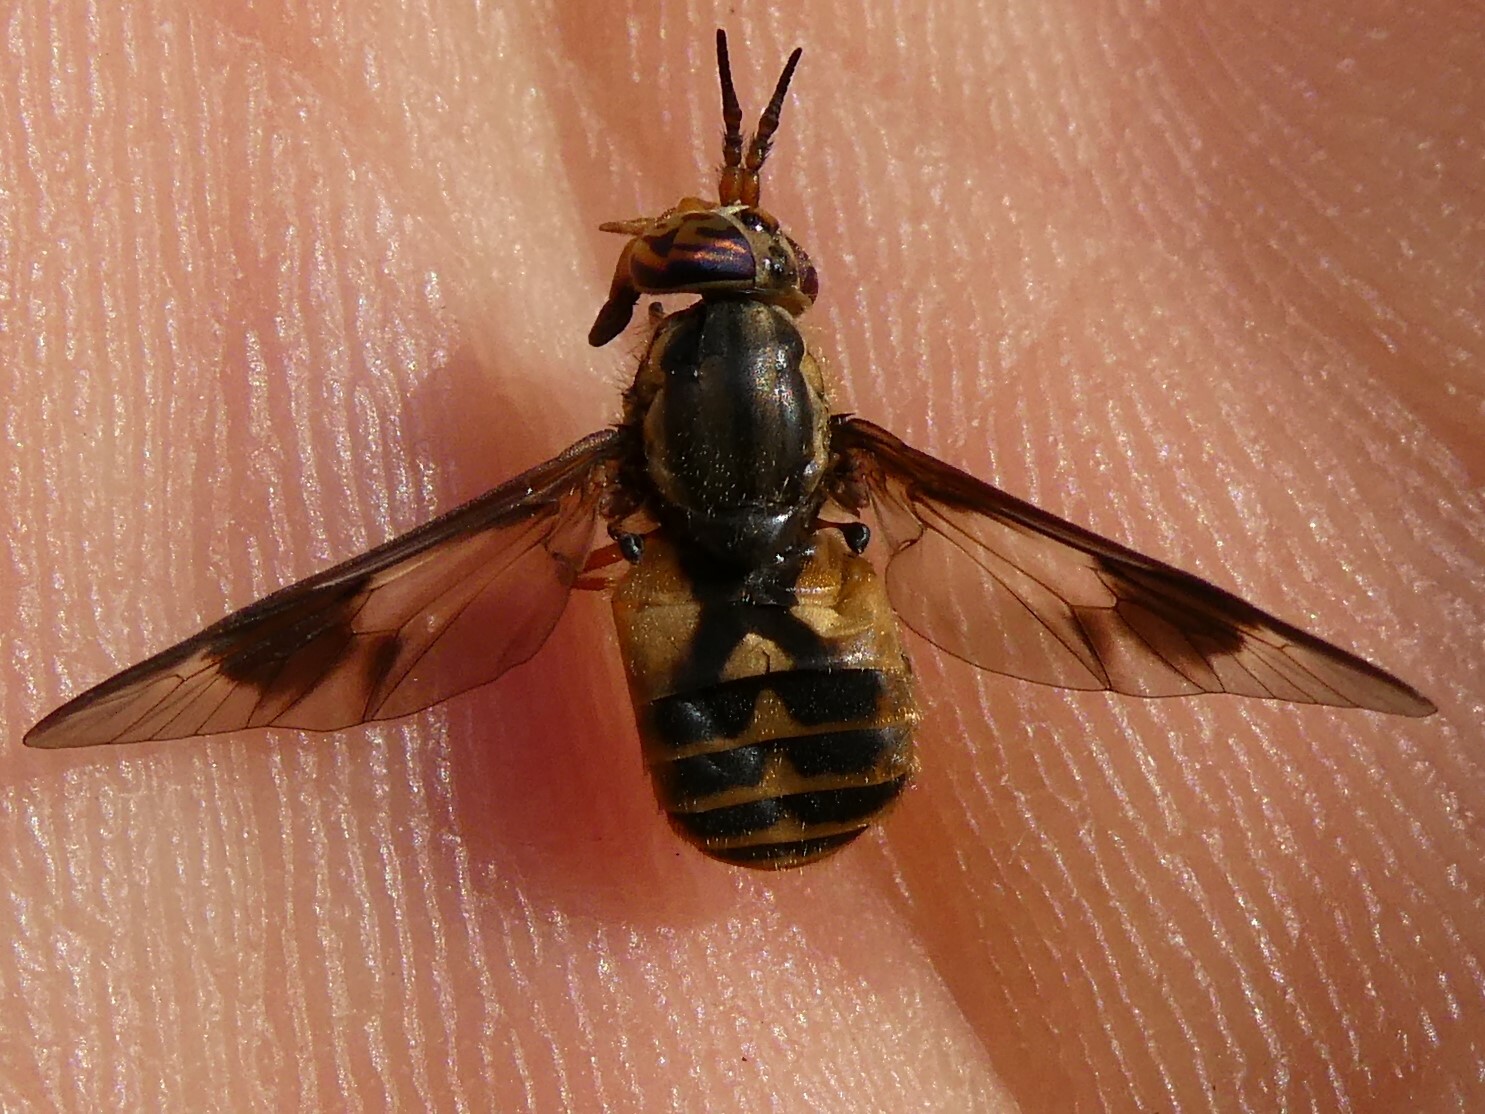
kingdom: Animalia
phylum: Arthropoda
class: Insecta
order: Diptera
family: Tabanidae
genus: Chrysops
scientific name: Chrysops sackeni
